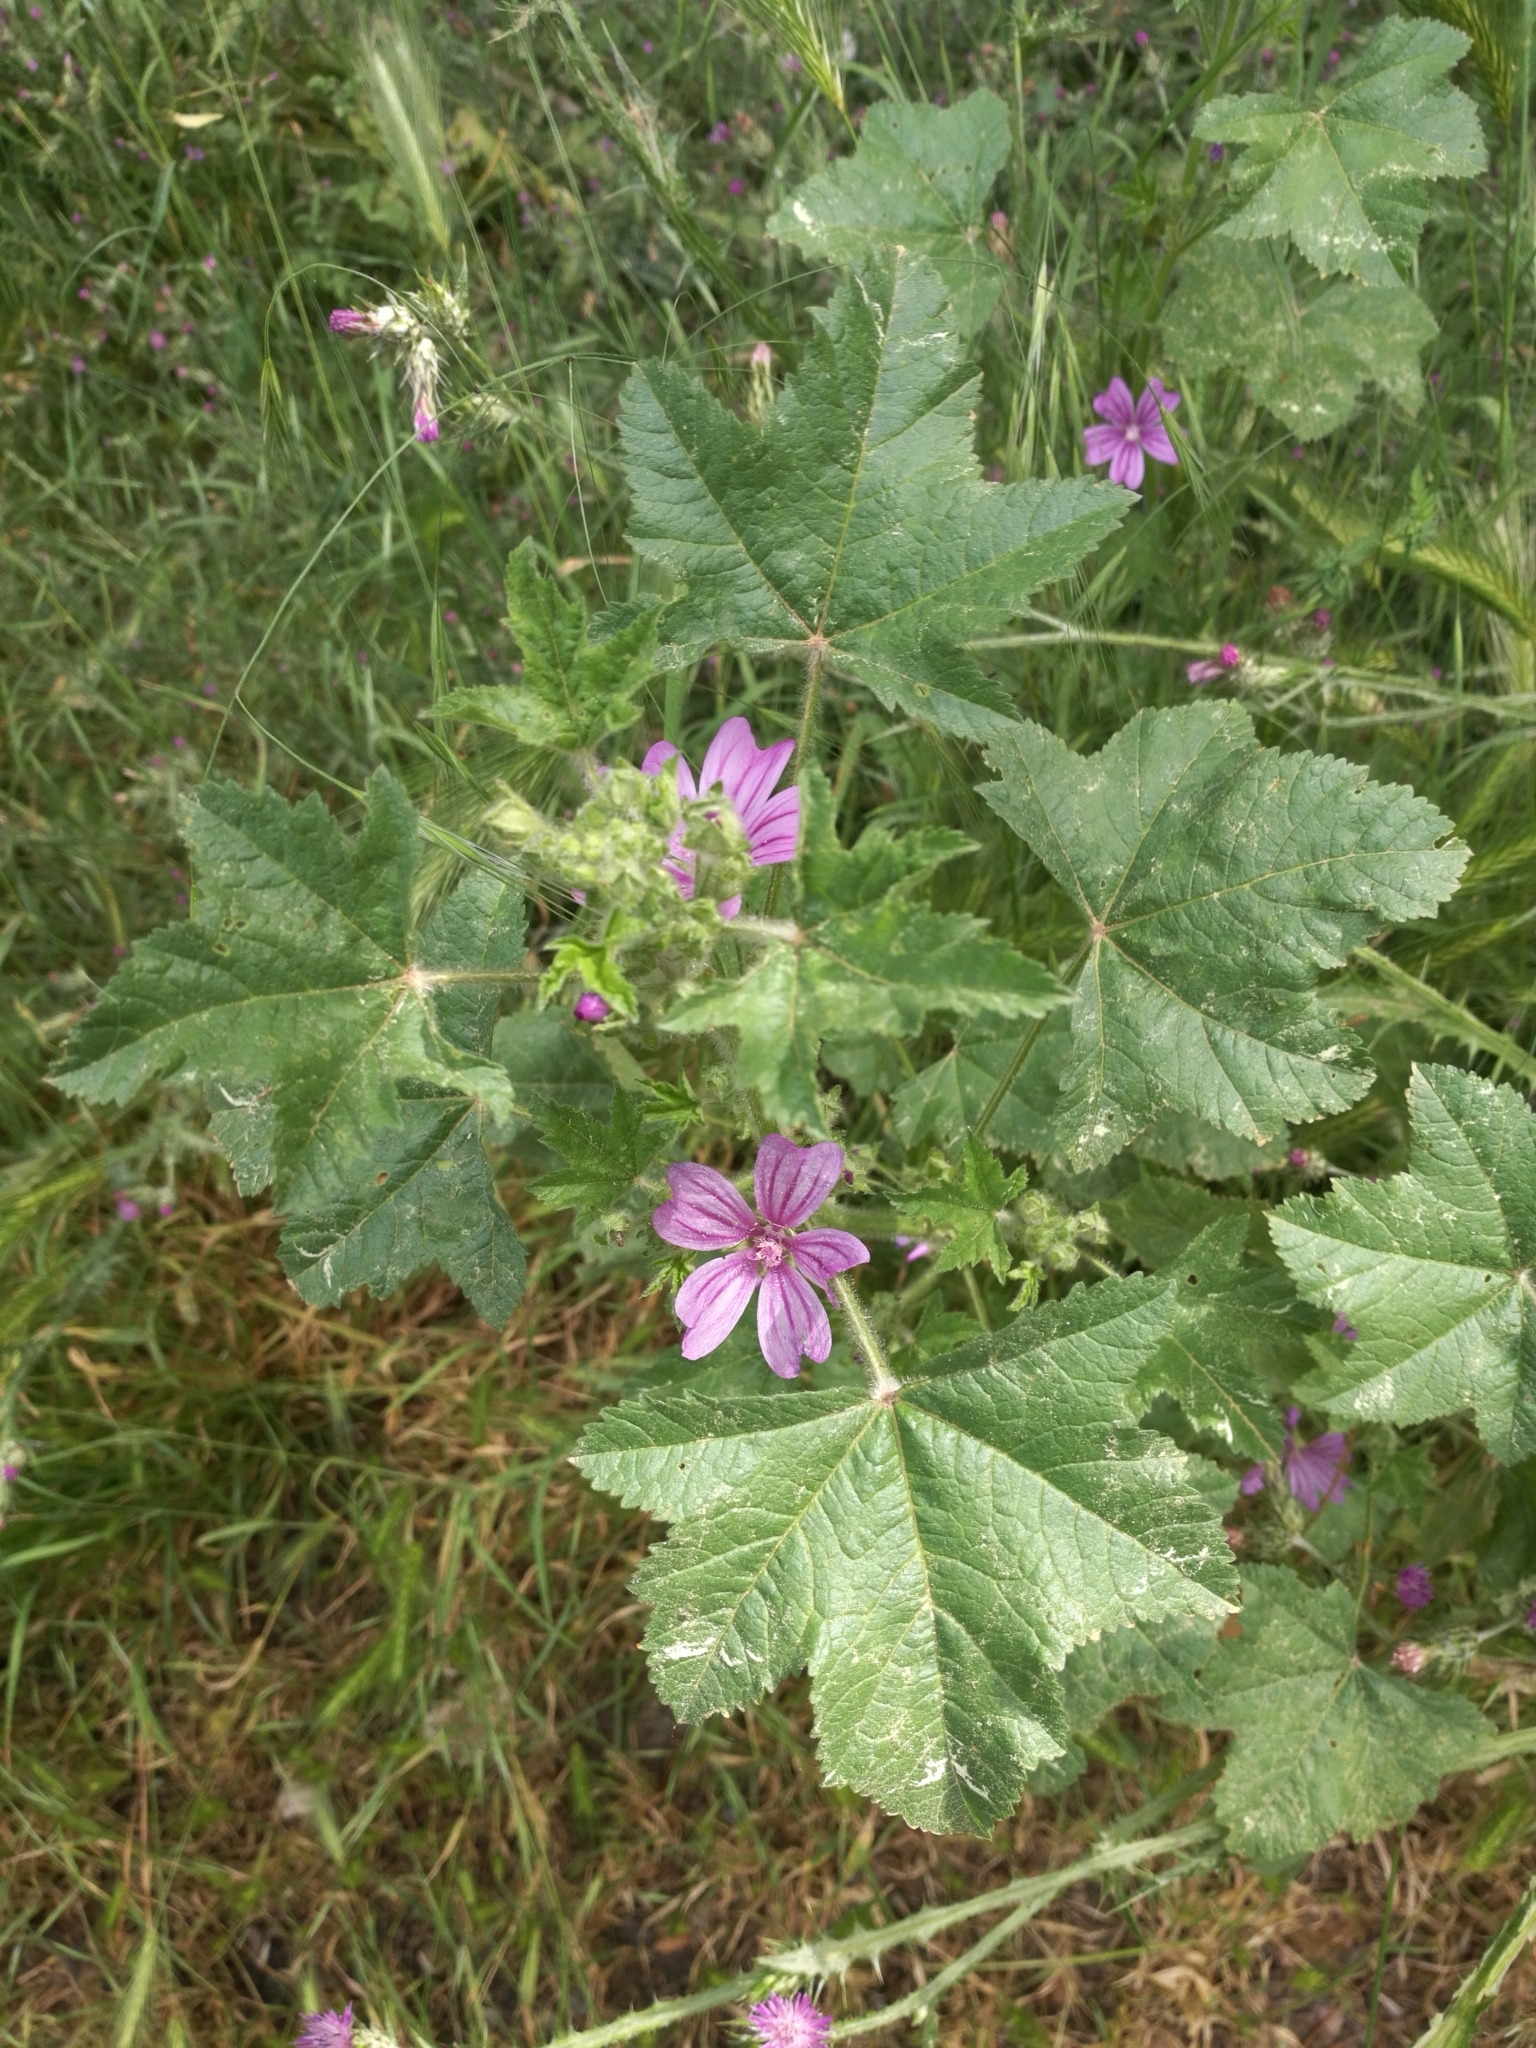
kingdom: Plantae
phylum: Tracheophyta
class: Magnoliopsida
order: Malvales
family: Malvaceae
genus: Malva
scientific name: Malva sylvestris
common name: Common mallow
